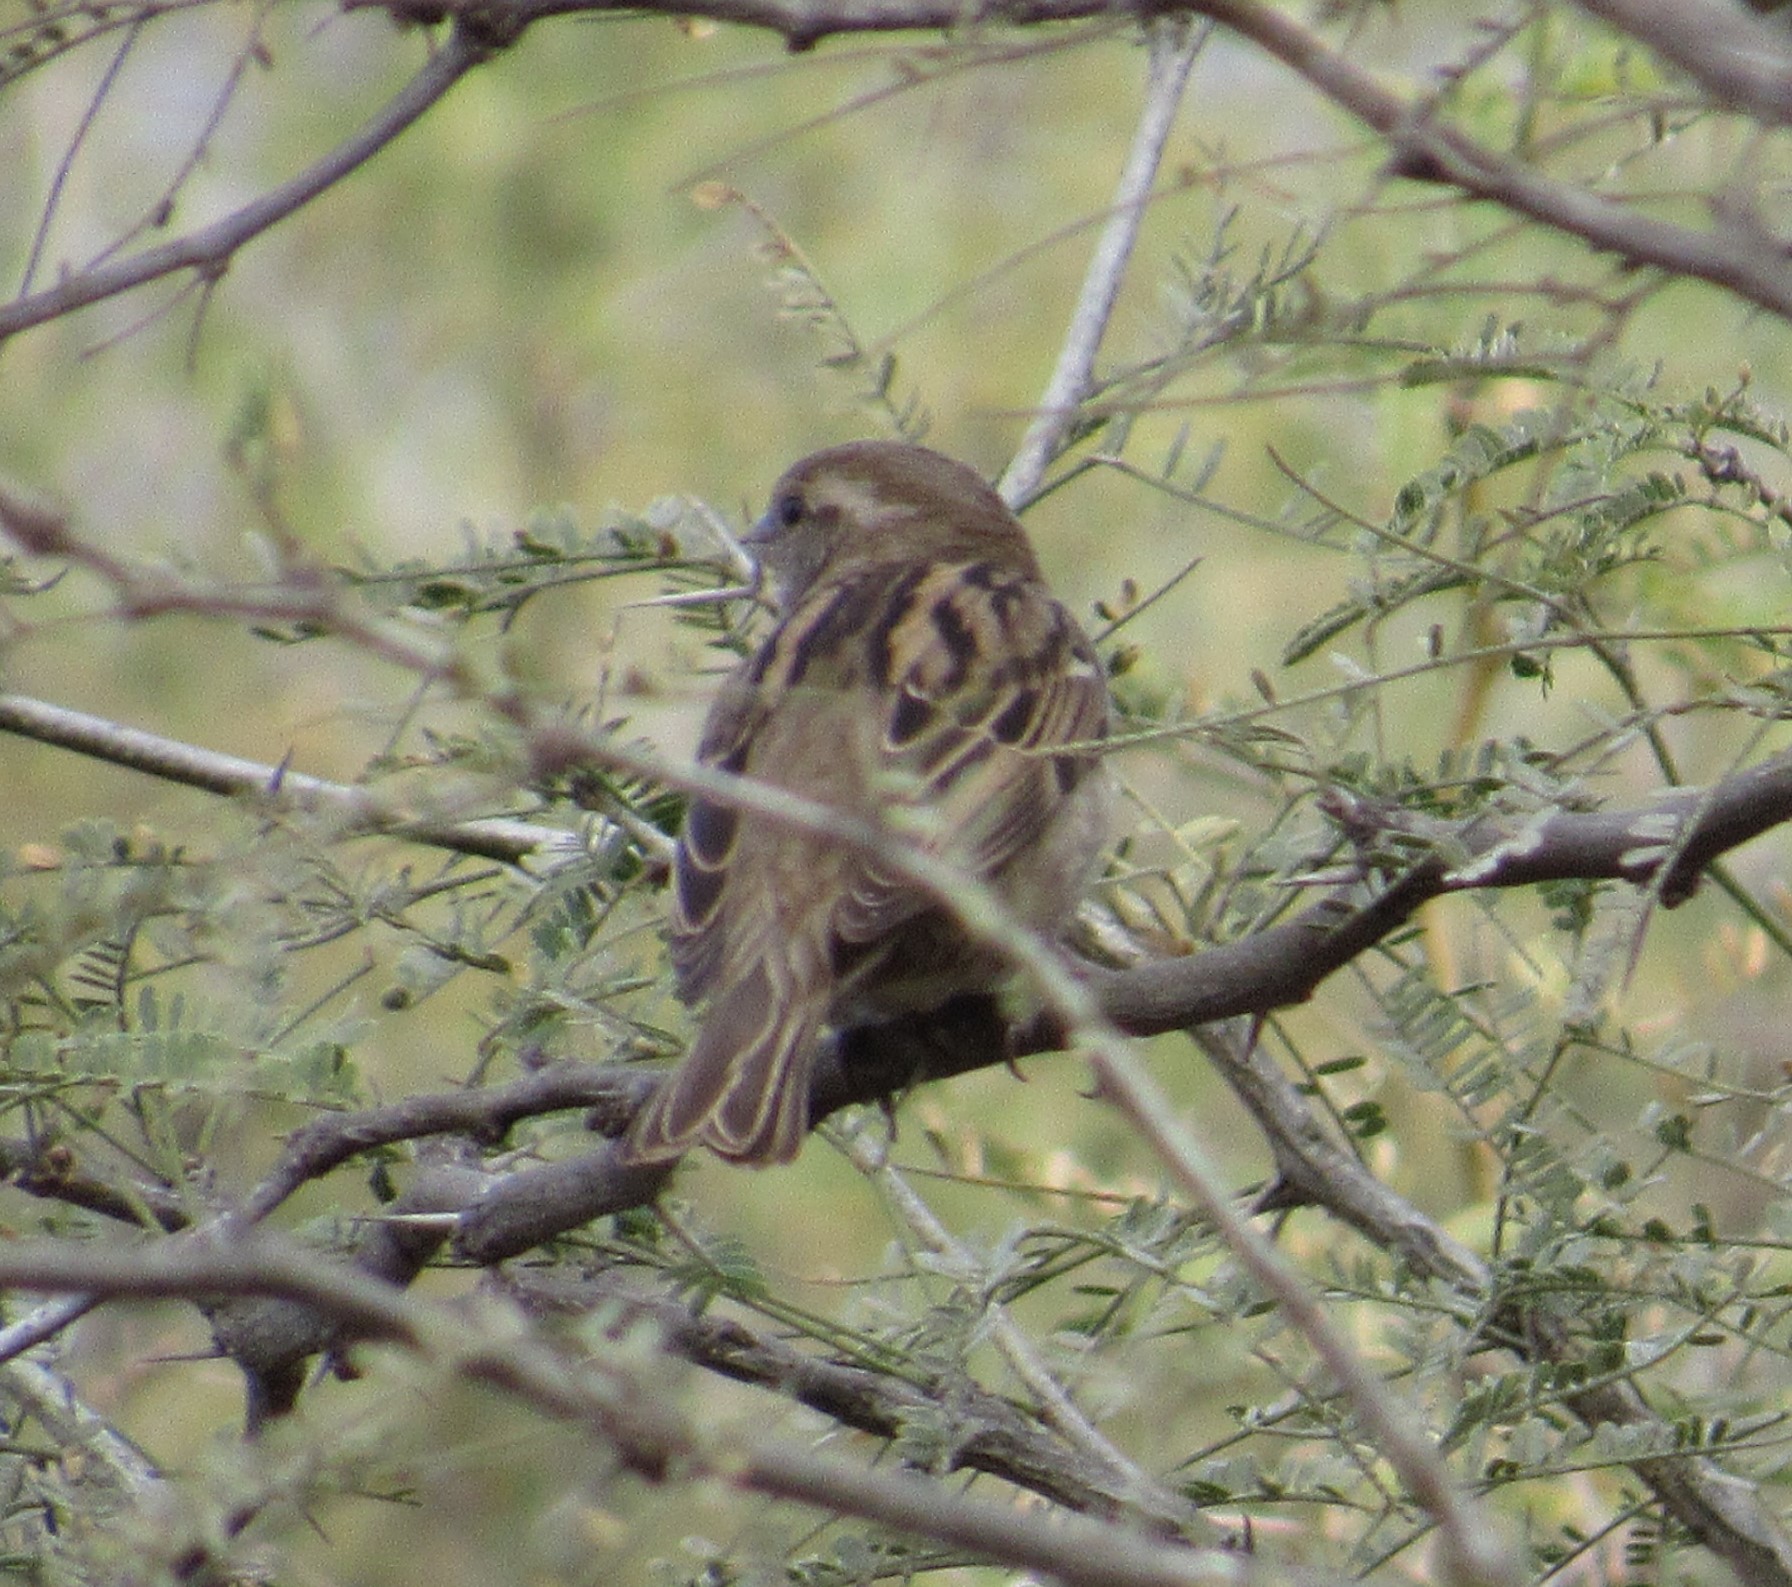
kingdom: Animalia
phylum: Chordata
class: Aves
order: Passeriformes
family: Passeridae
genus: Passer
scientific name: Passer domesticus
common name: House sparrow
